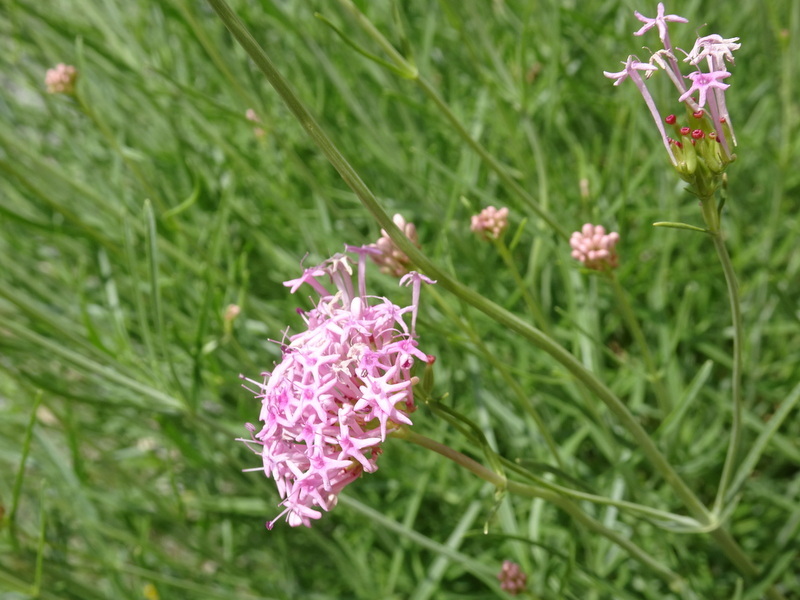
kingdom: Plantae
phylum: Tracheophyta
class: Magnoliopsida
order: Dipsacales
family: Caprifoliaceae
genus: Centranthus
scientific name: Centranthus angustifolius
